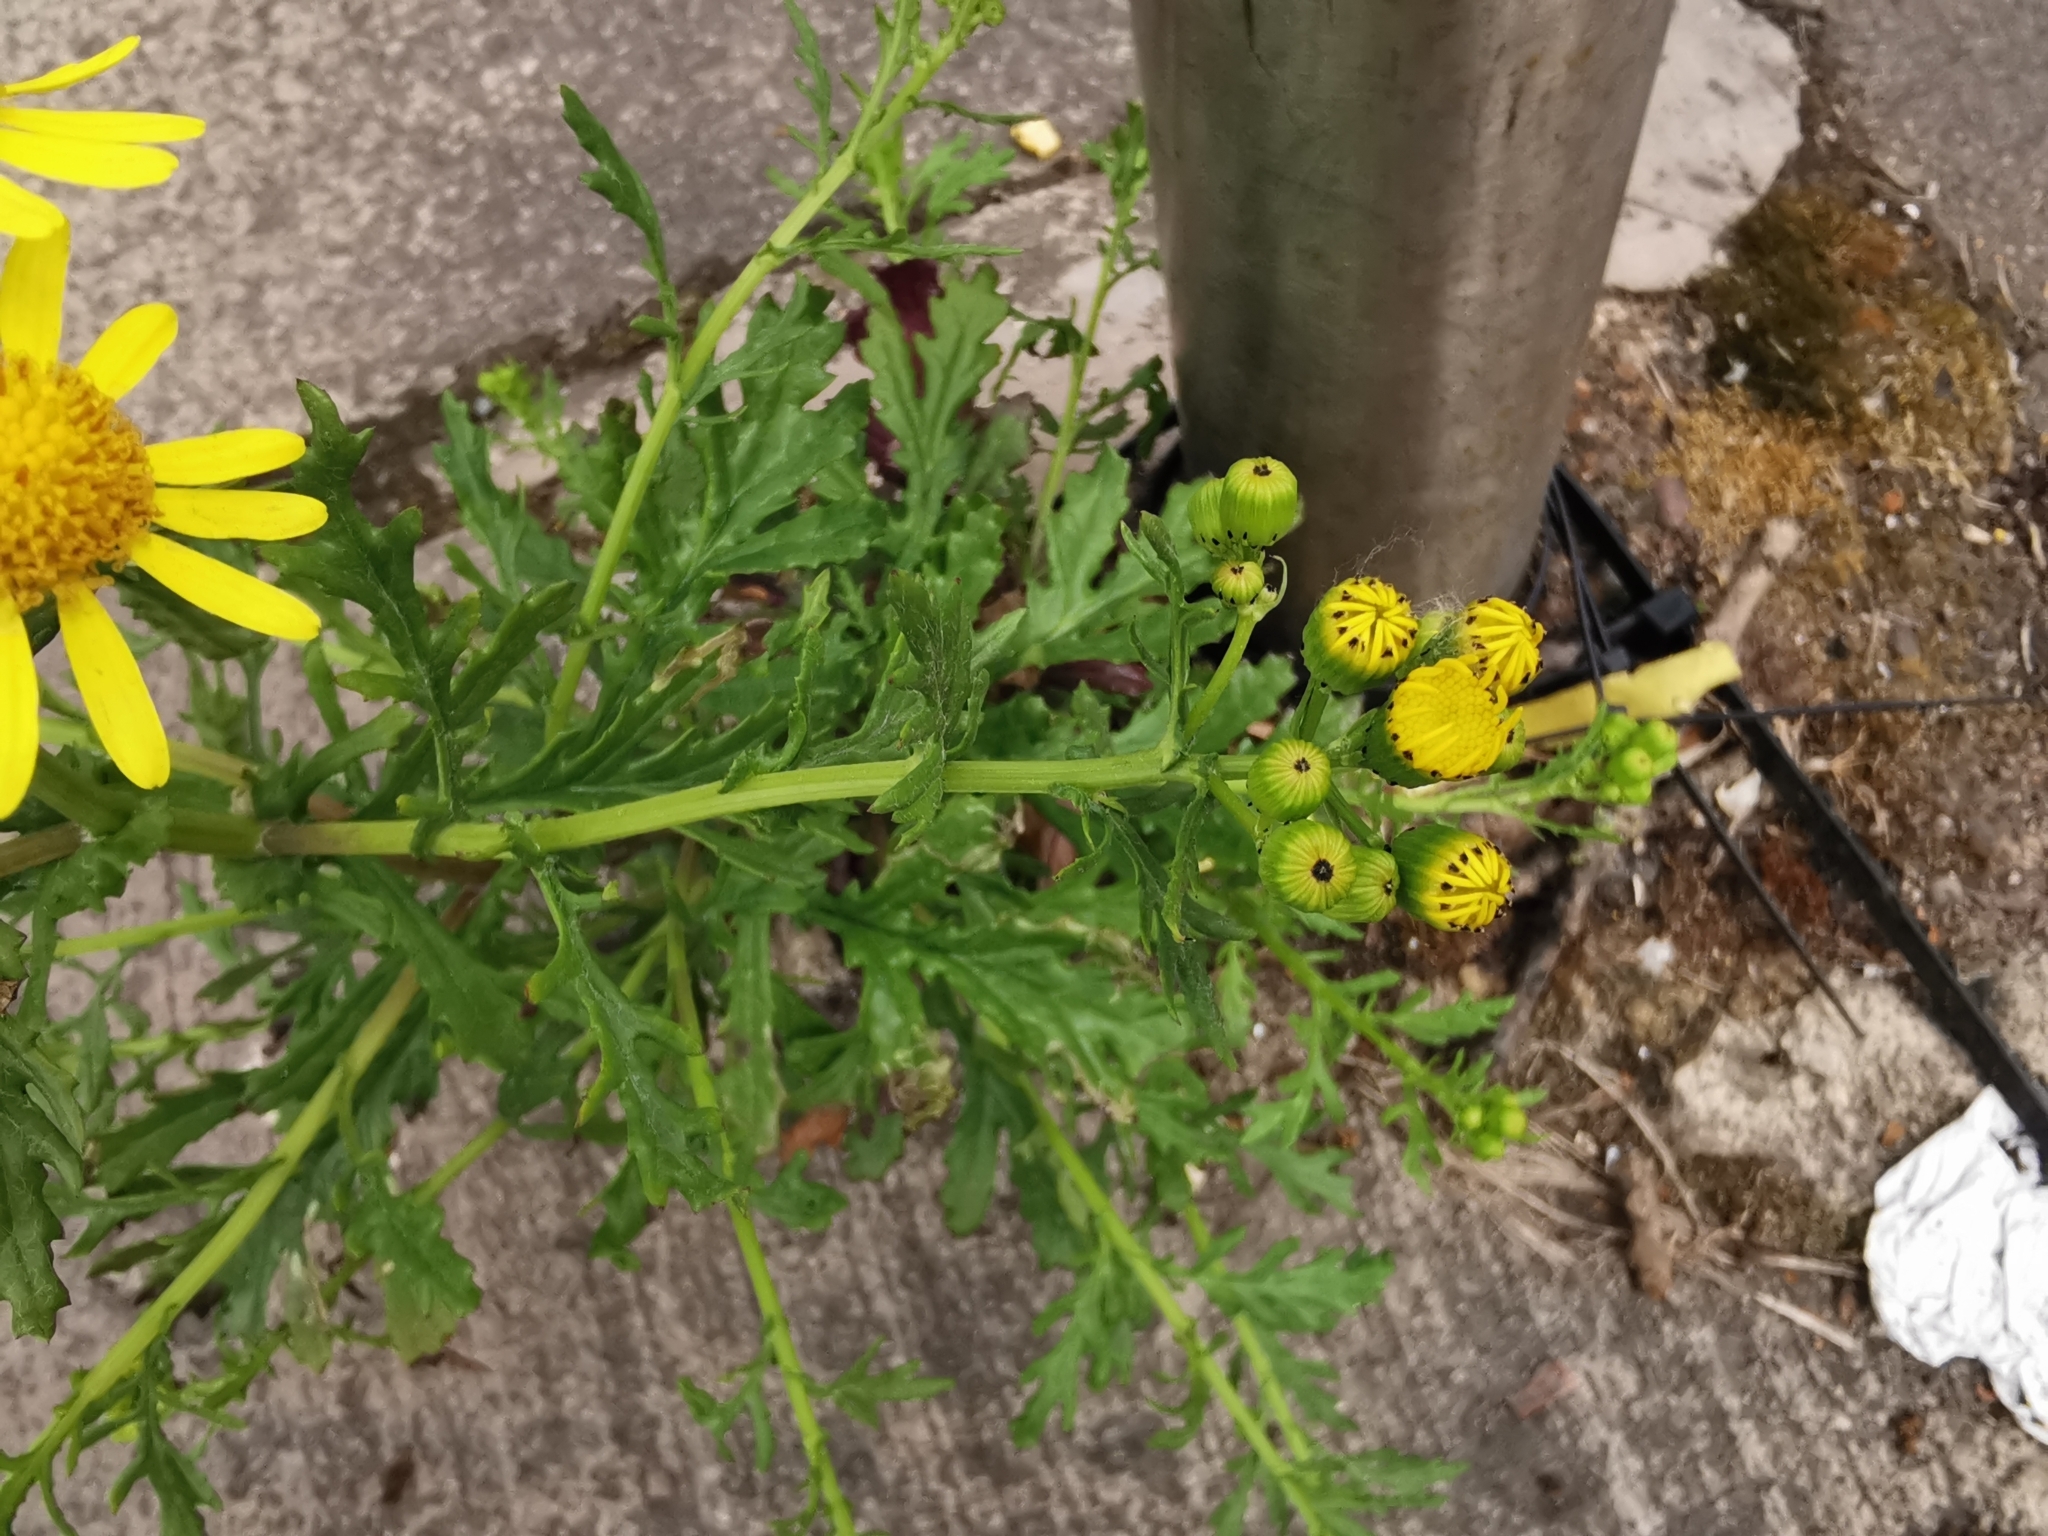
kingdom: Plantae
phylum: Tracheophyta
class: Magnoliopsida
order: Asterales
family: Asteraceae
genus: Senecio
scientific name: Senecio squalidus
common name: Oxford ragwort
